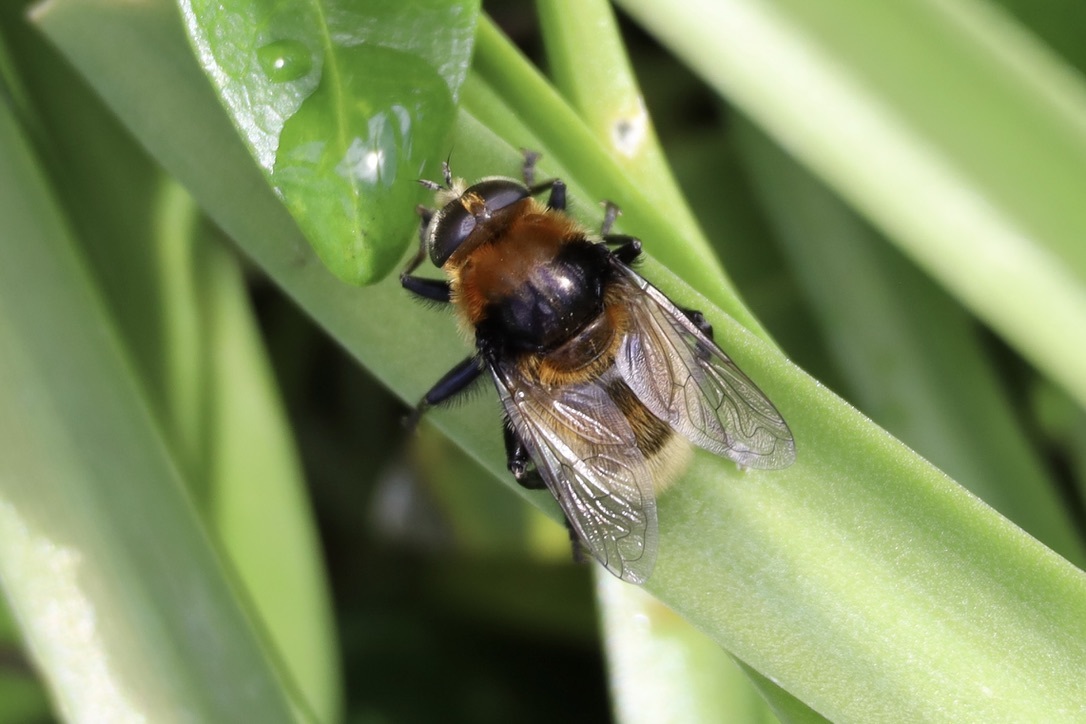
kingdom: Animalia
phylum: Arthropoda
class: Insecta
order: Diptera
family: Syrphidae
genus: Merodon
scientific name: Merodon equestris
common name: Greater bulb-fly
